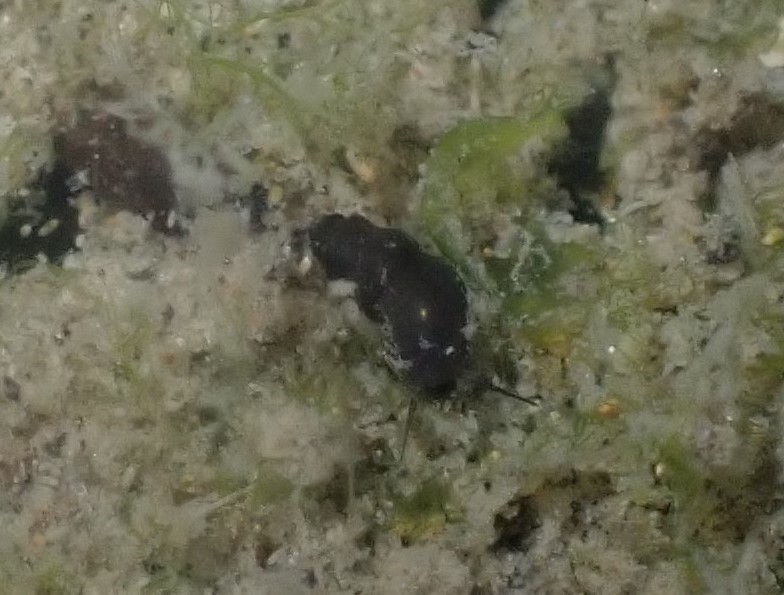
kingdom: Animalia
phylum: Mollusca
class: Gastropoda
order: Littorinimorpha
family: Tateidae
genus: Halopyrgus
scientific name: Halopyrgus pagodulus
